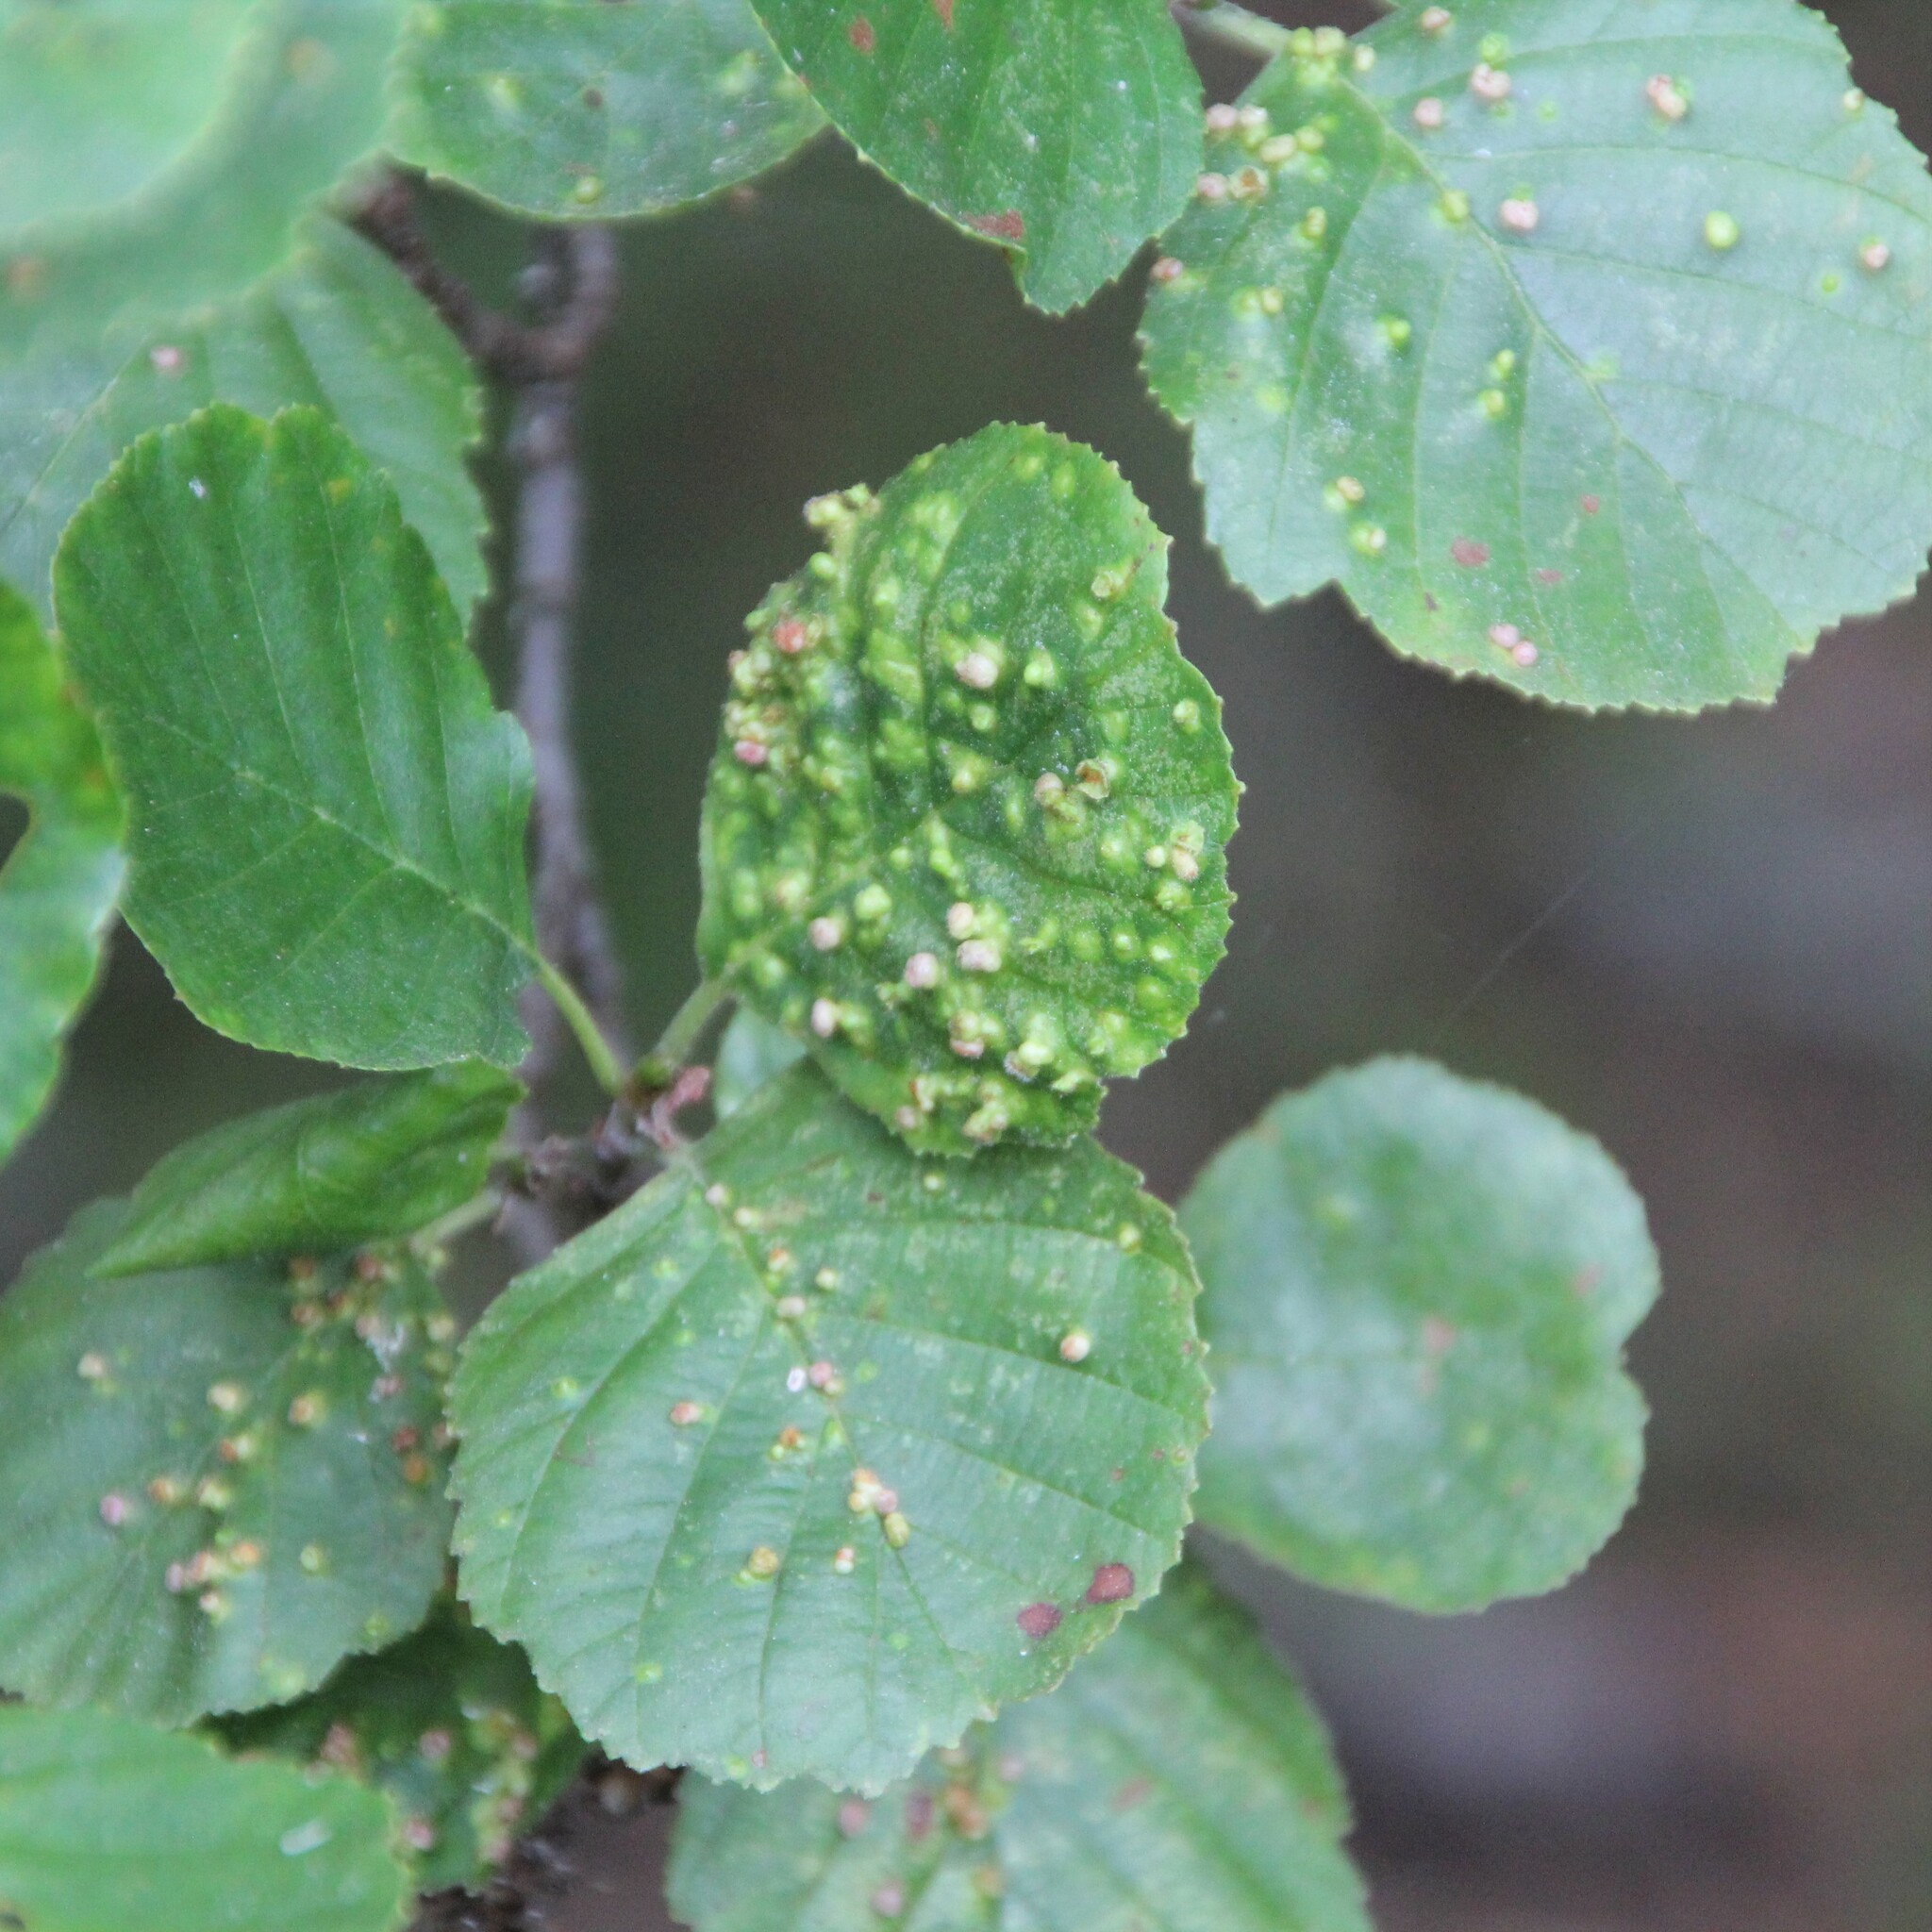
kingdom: Animalia
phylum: Arthropoda
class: Arachnida
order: Trombidiformes
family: Eriophyidae
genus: Eriophyes
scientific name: Eriophyes laevis
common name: Alder leaf gall mite
